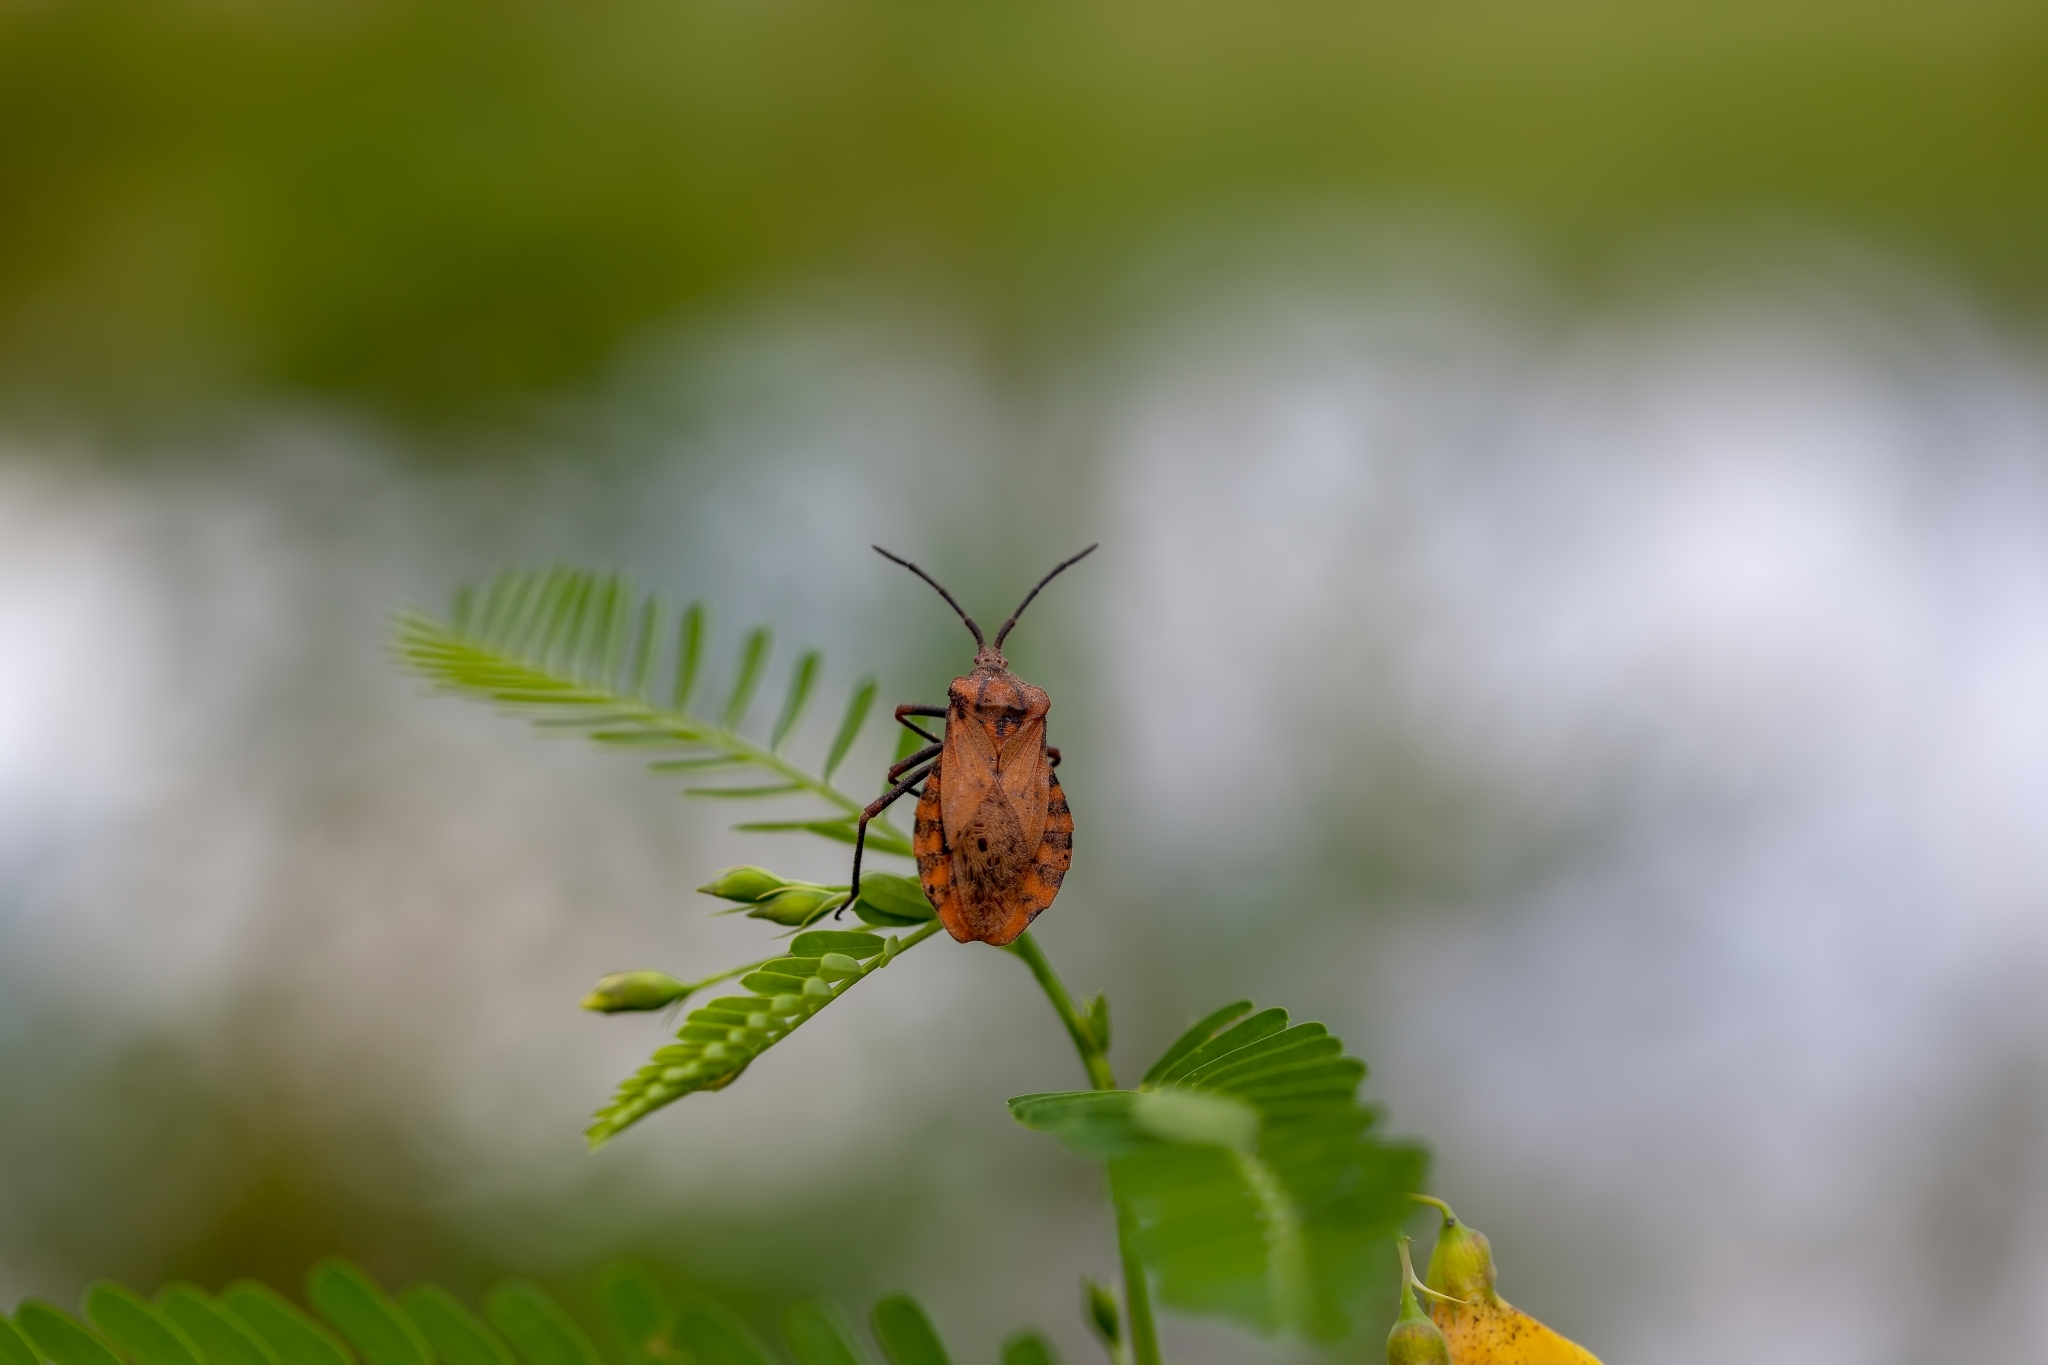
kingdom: Animalia
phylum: Arthropoda
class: Insecta
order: Hemiptera
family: Coreidae
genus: Spartocera
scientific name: Spartocera fusca
